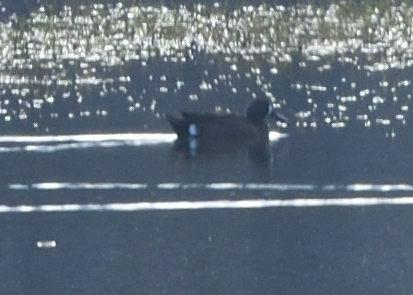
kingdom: Animalia
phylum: Chordata
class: Aves
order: Anseriformes
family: Anatidae
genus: Spatula
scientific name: Spatula discors
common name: Blue-winged teal
